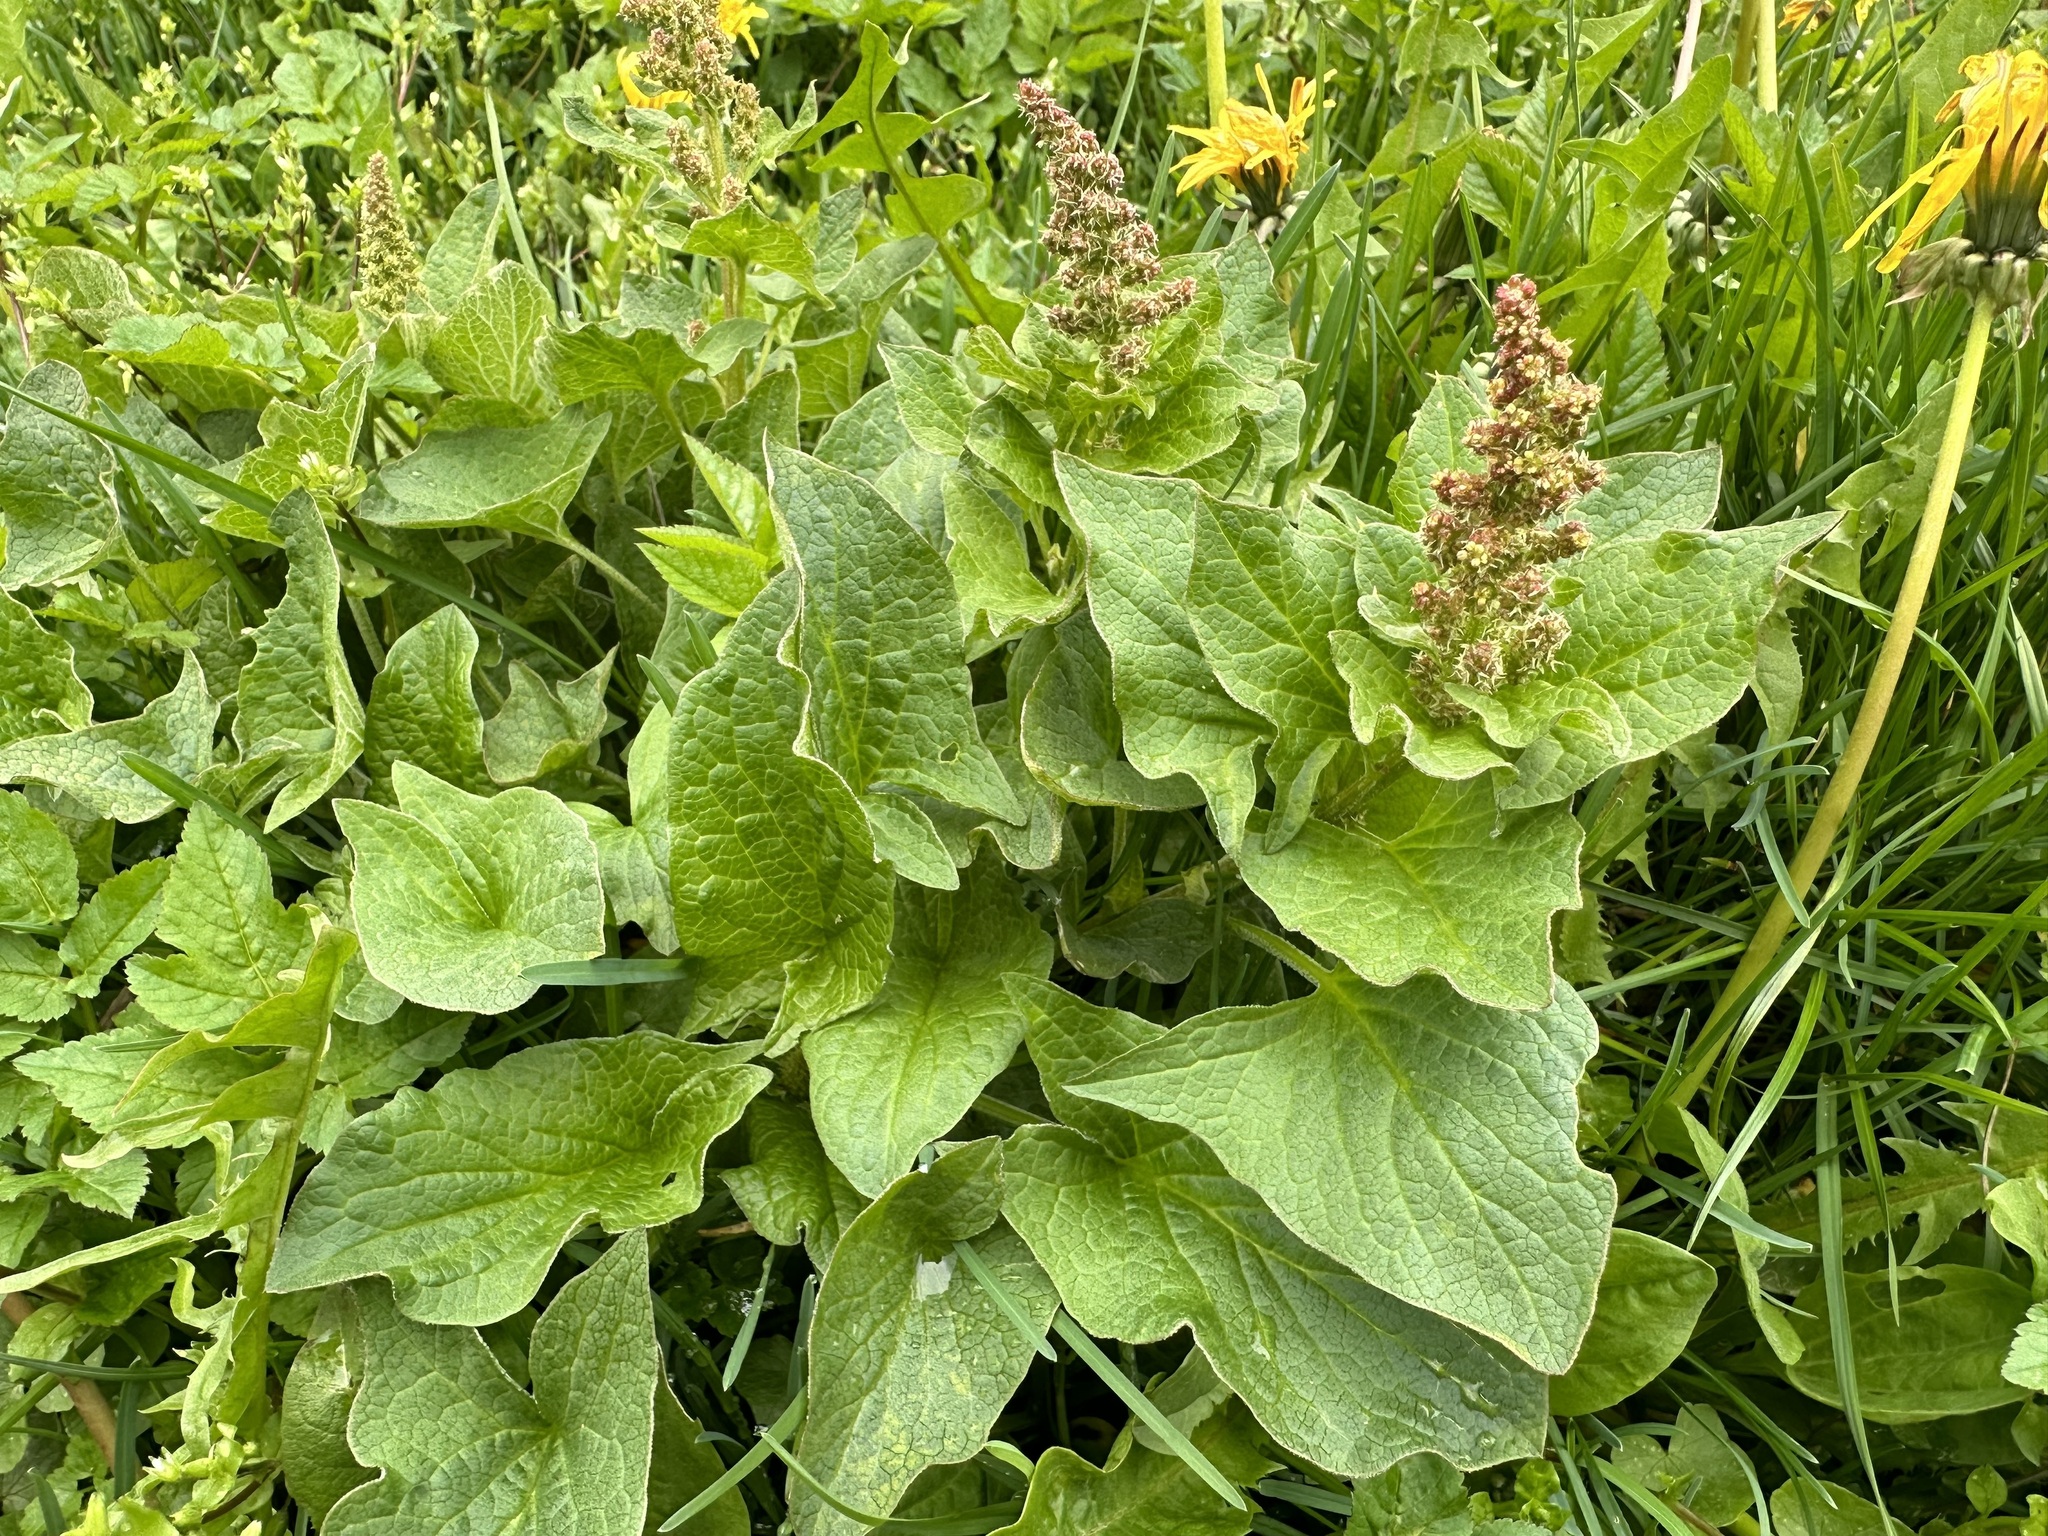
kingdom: Plantae
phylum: Tracheophyta
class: Magnoliopsida
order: Caryophyllales
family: Amaranthaceae
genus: Blitum
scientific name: Blitum bonus-henricus
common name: Good king henry
